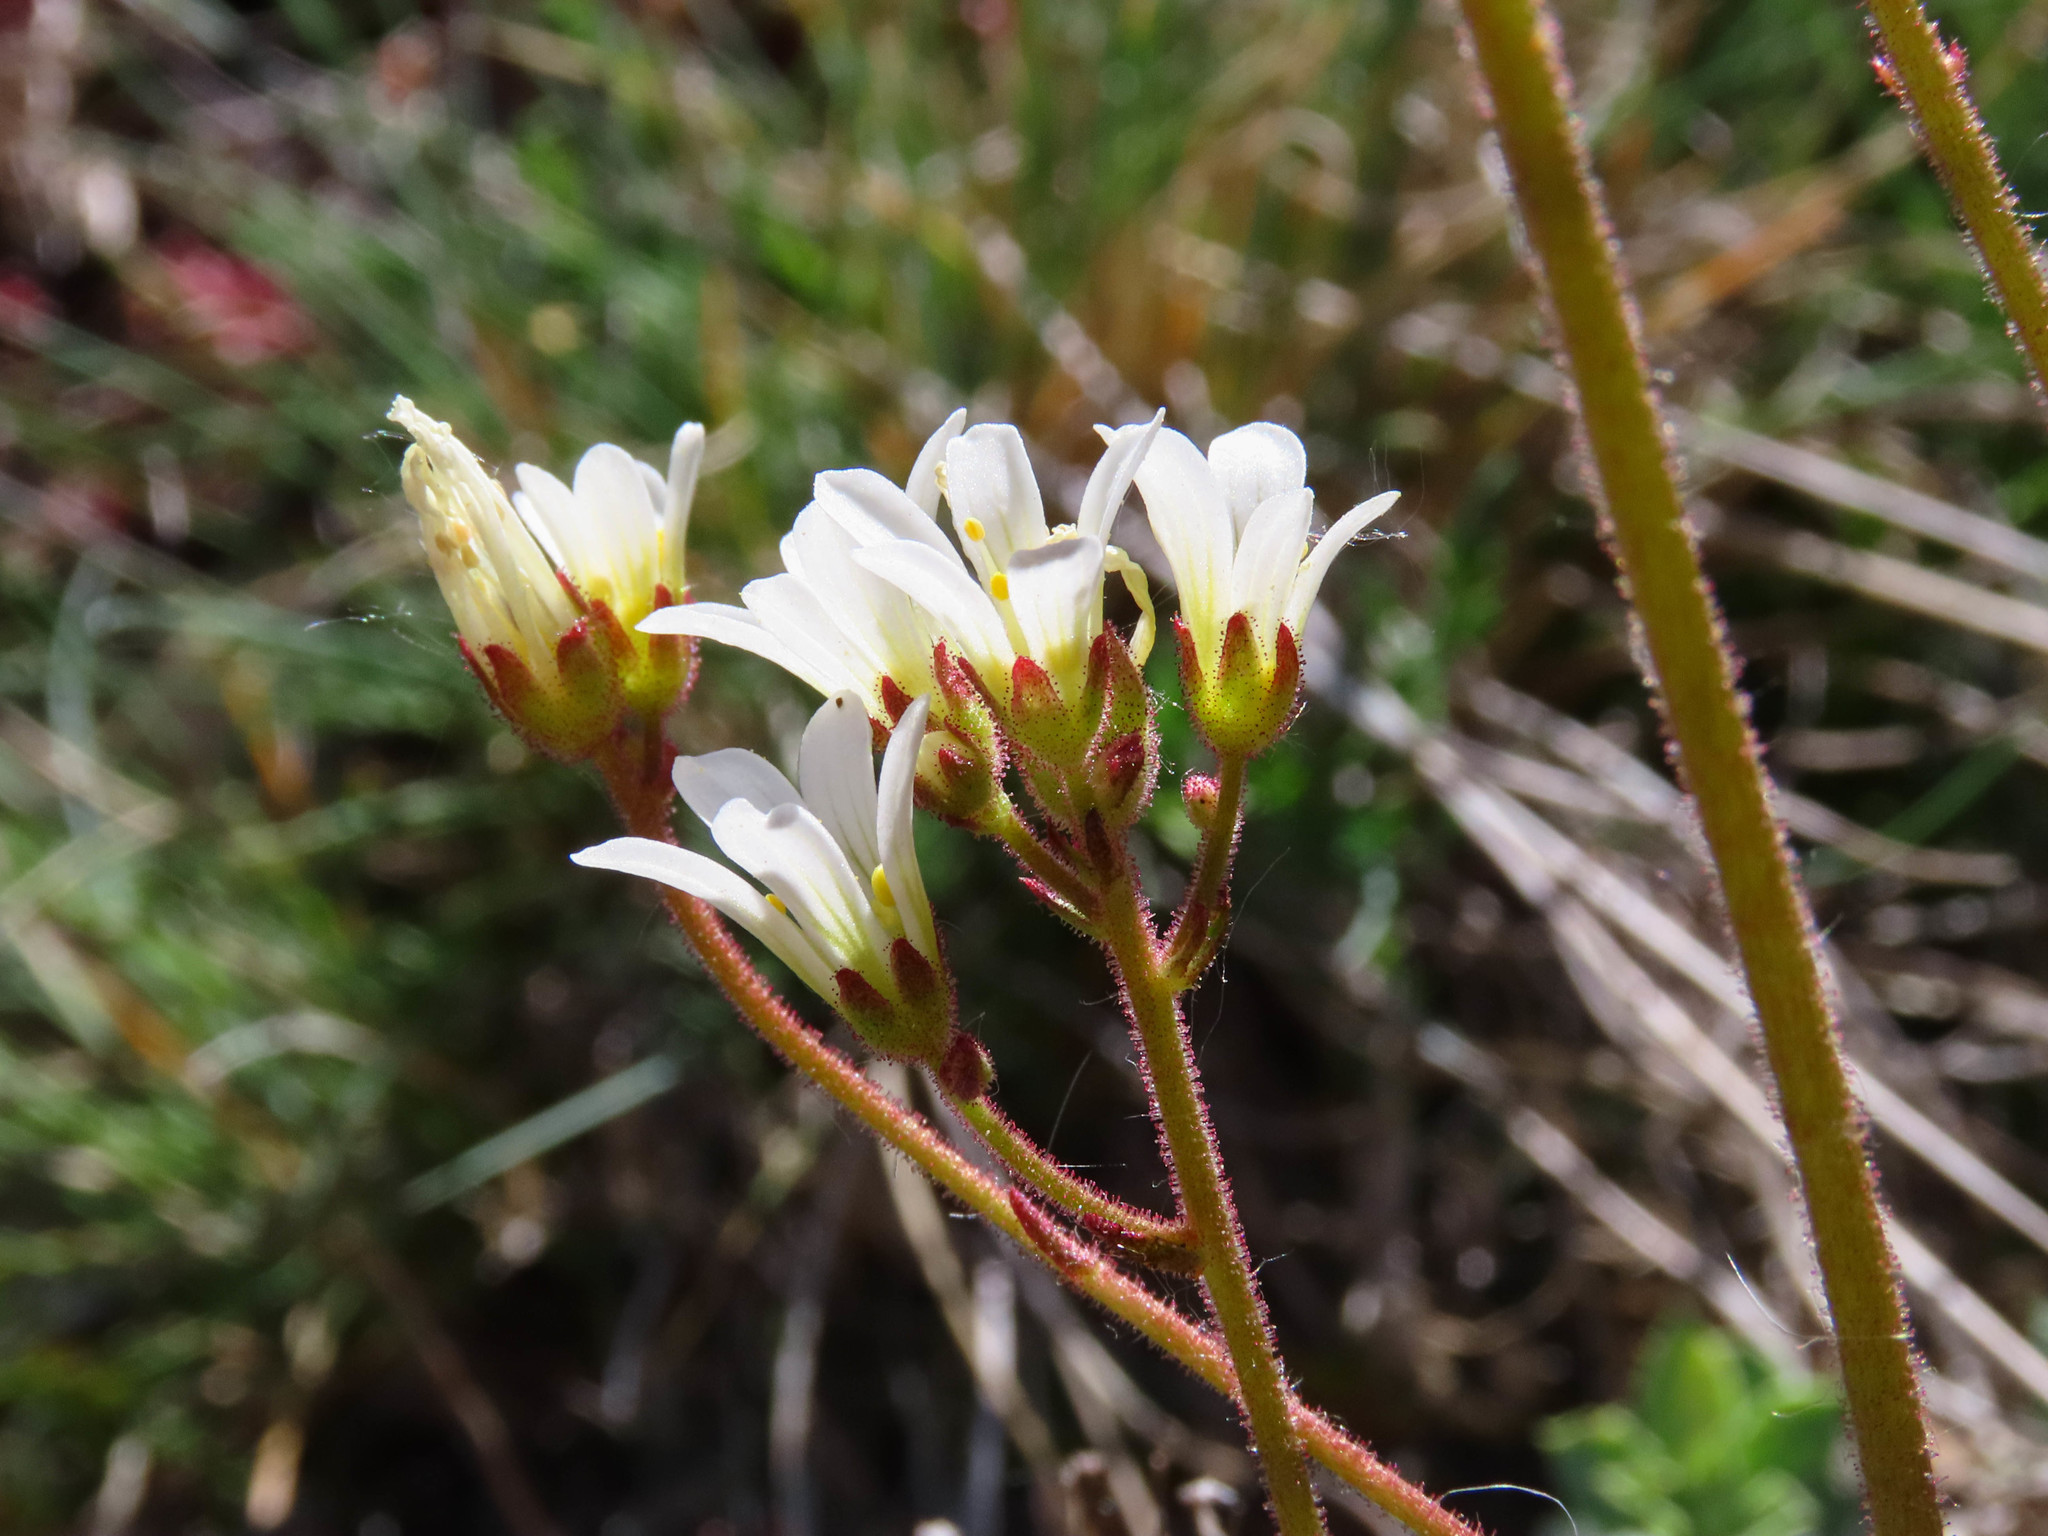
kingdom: Plantae
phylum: Tracheophyta
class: Magnoliopsida
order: Saxifragales
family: Saxifragaceae
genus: Saxifraga
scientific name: Saxifraga granulata
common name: Meadow saxifrage
